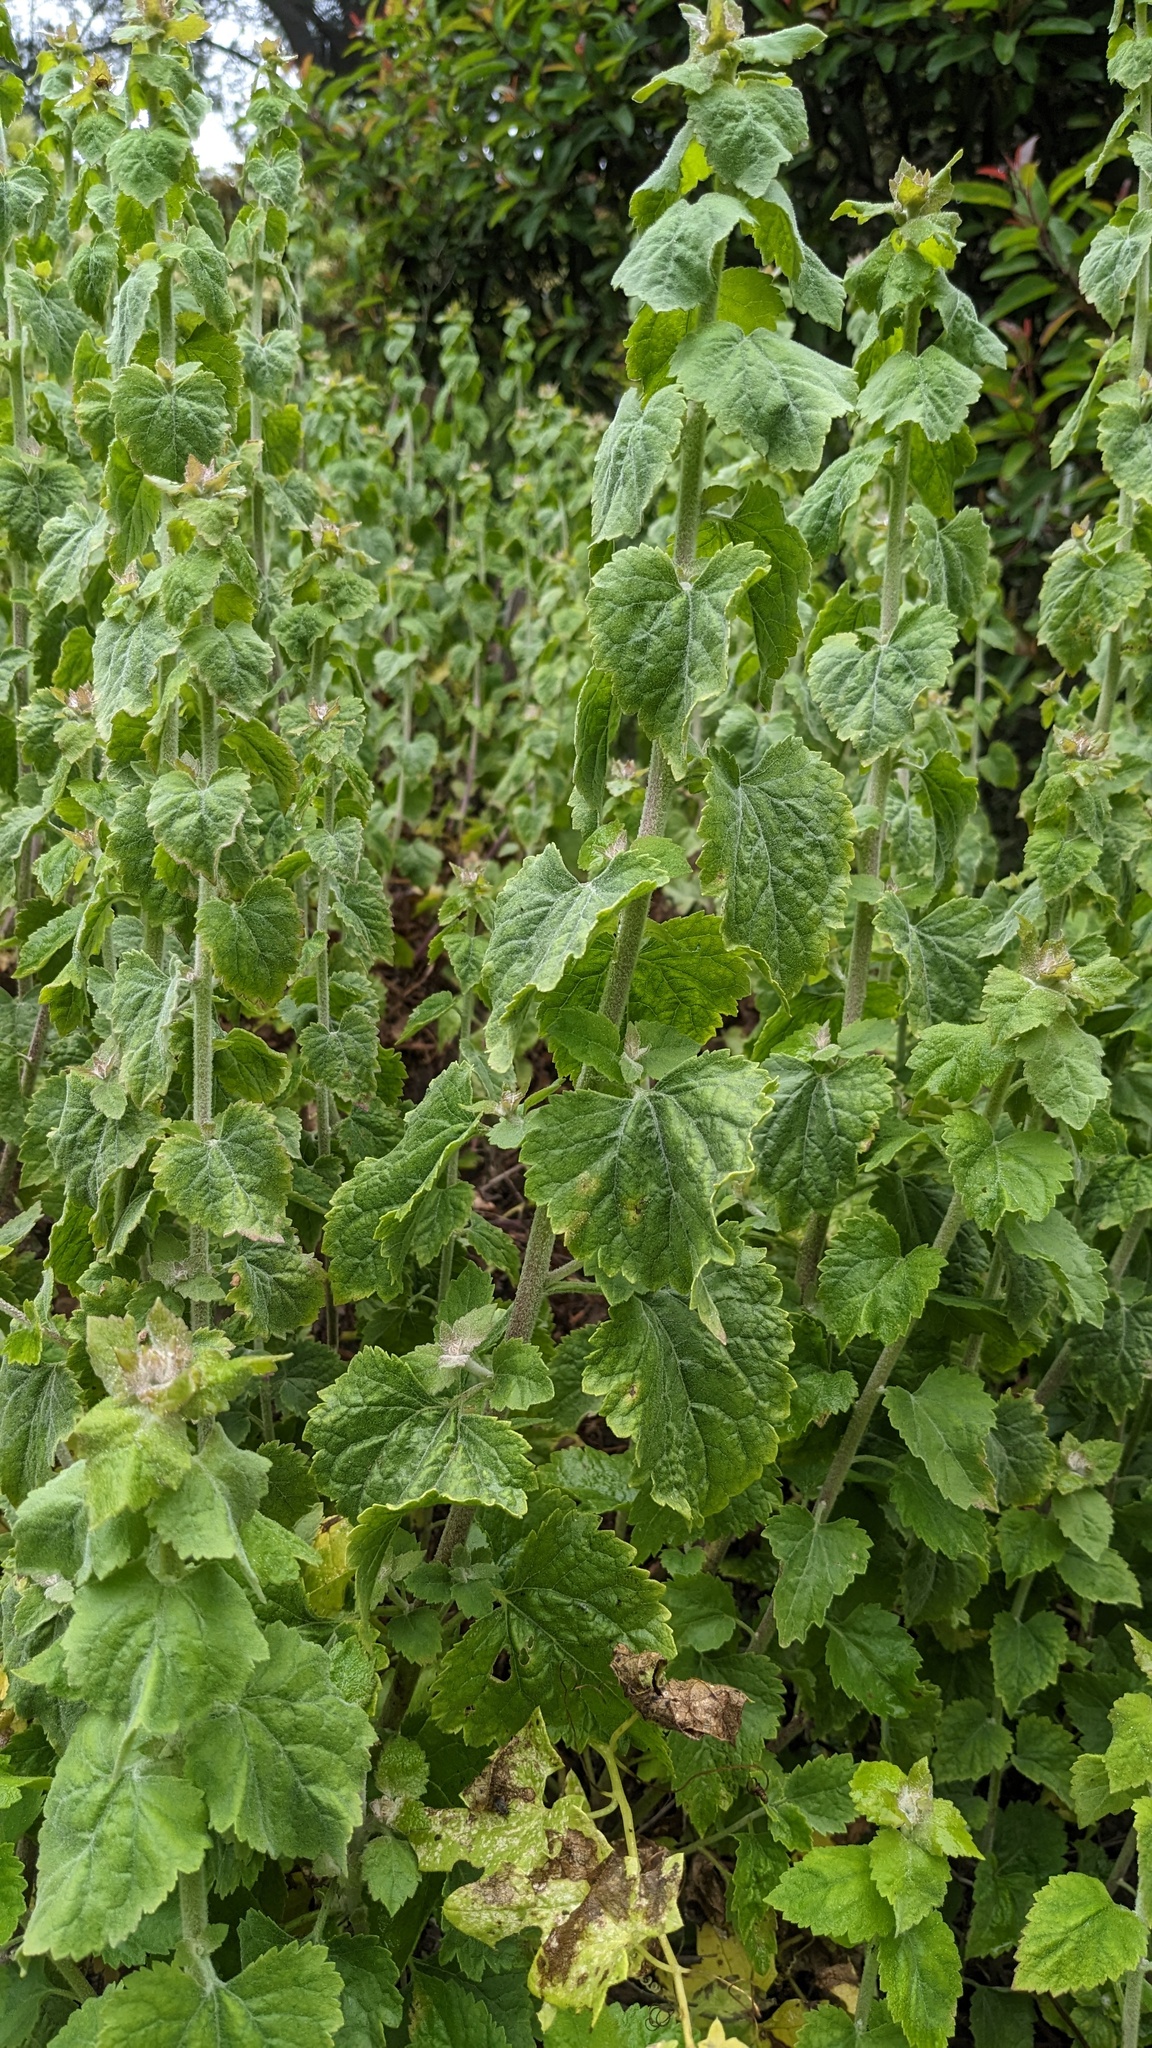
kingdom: Plantae
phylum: Tracheophyta
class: Magnoliopsida
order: Asterales
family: Asteraceae
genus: Brickellia
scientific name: Brickellia californica
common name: California brickellbush
